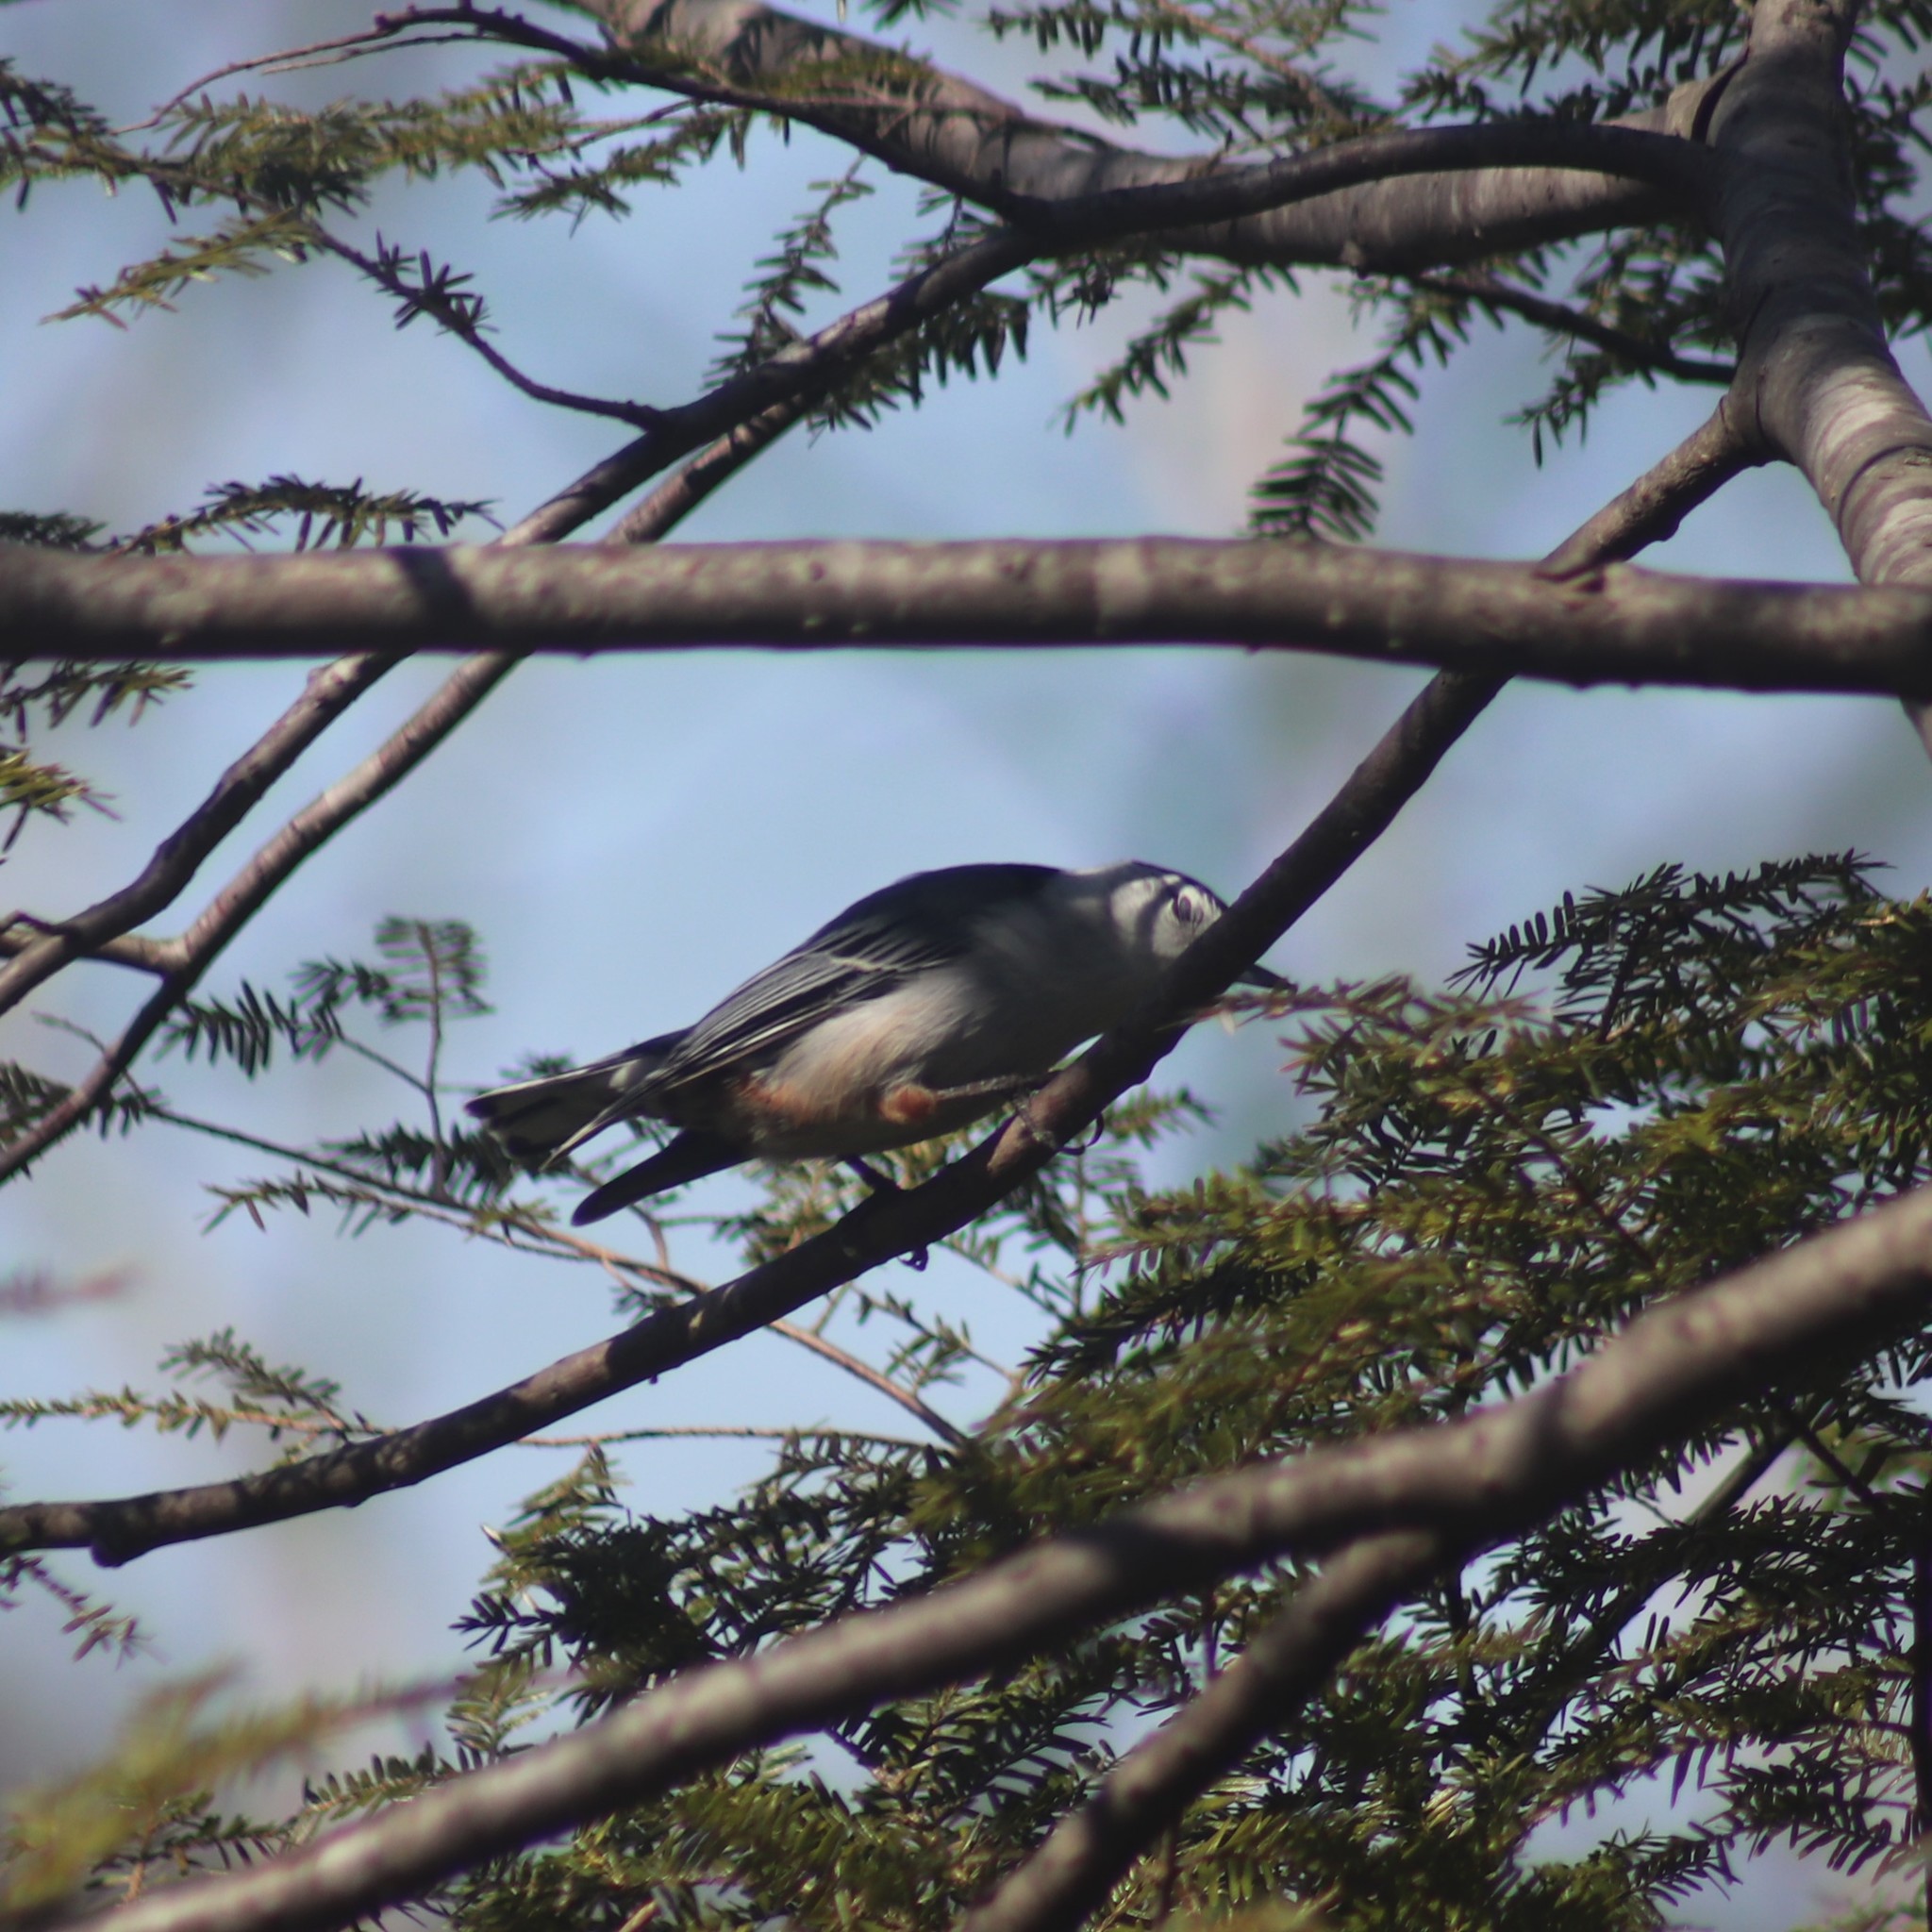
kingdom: Animalia
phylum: Chordata
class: Aves
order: Passeriformes
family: Sittidae
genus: Sitta
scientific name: Sitta carolinensis
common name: White-breasted nuthatch
